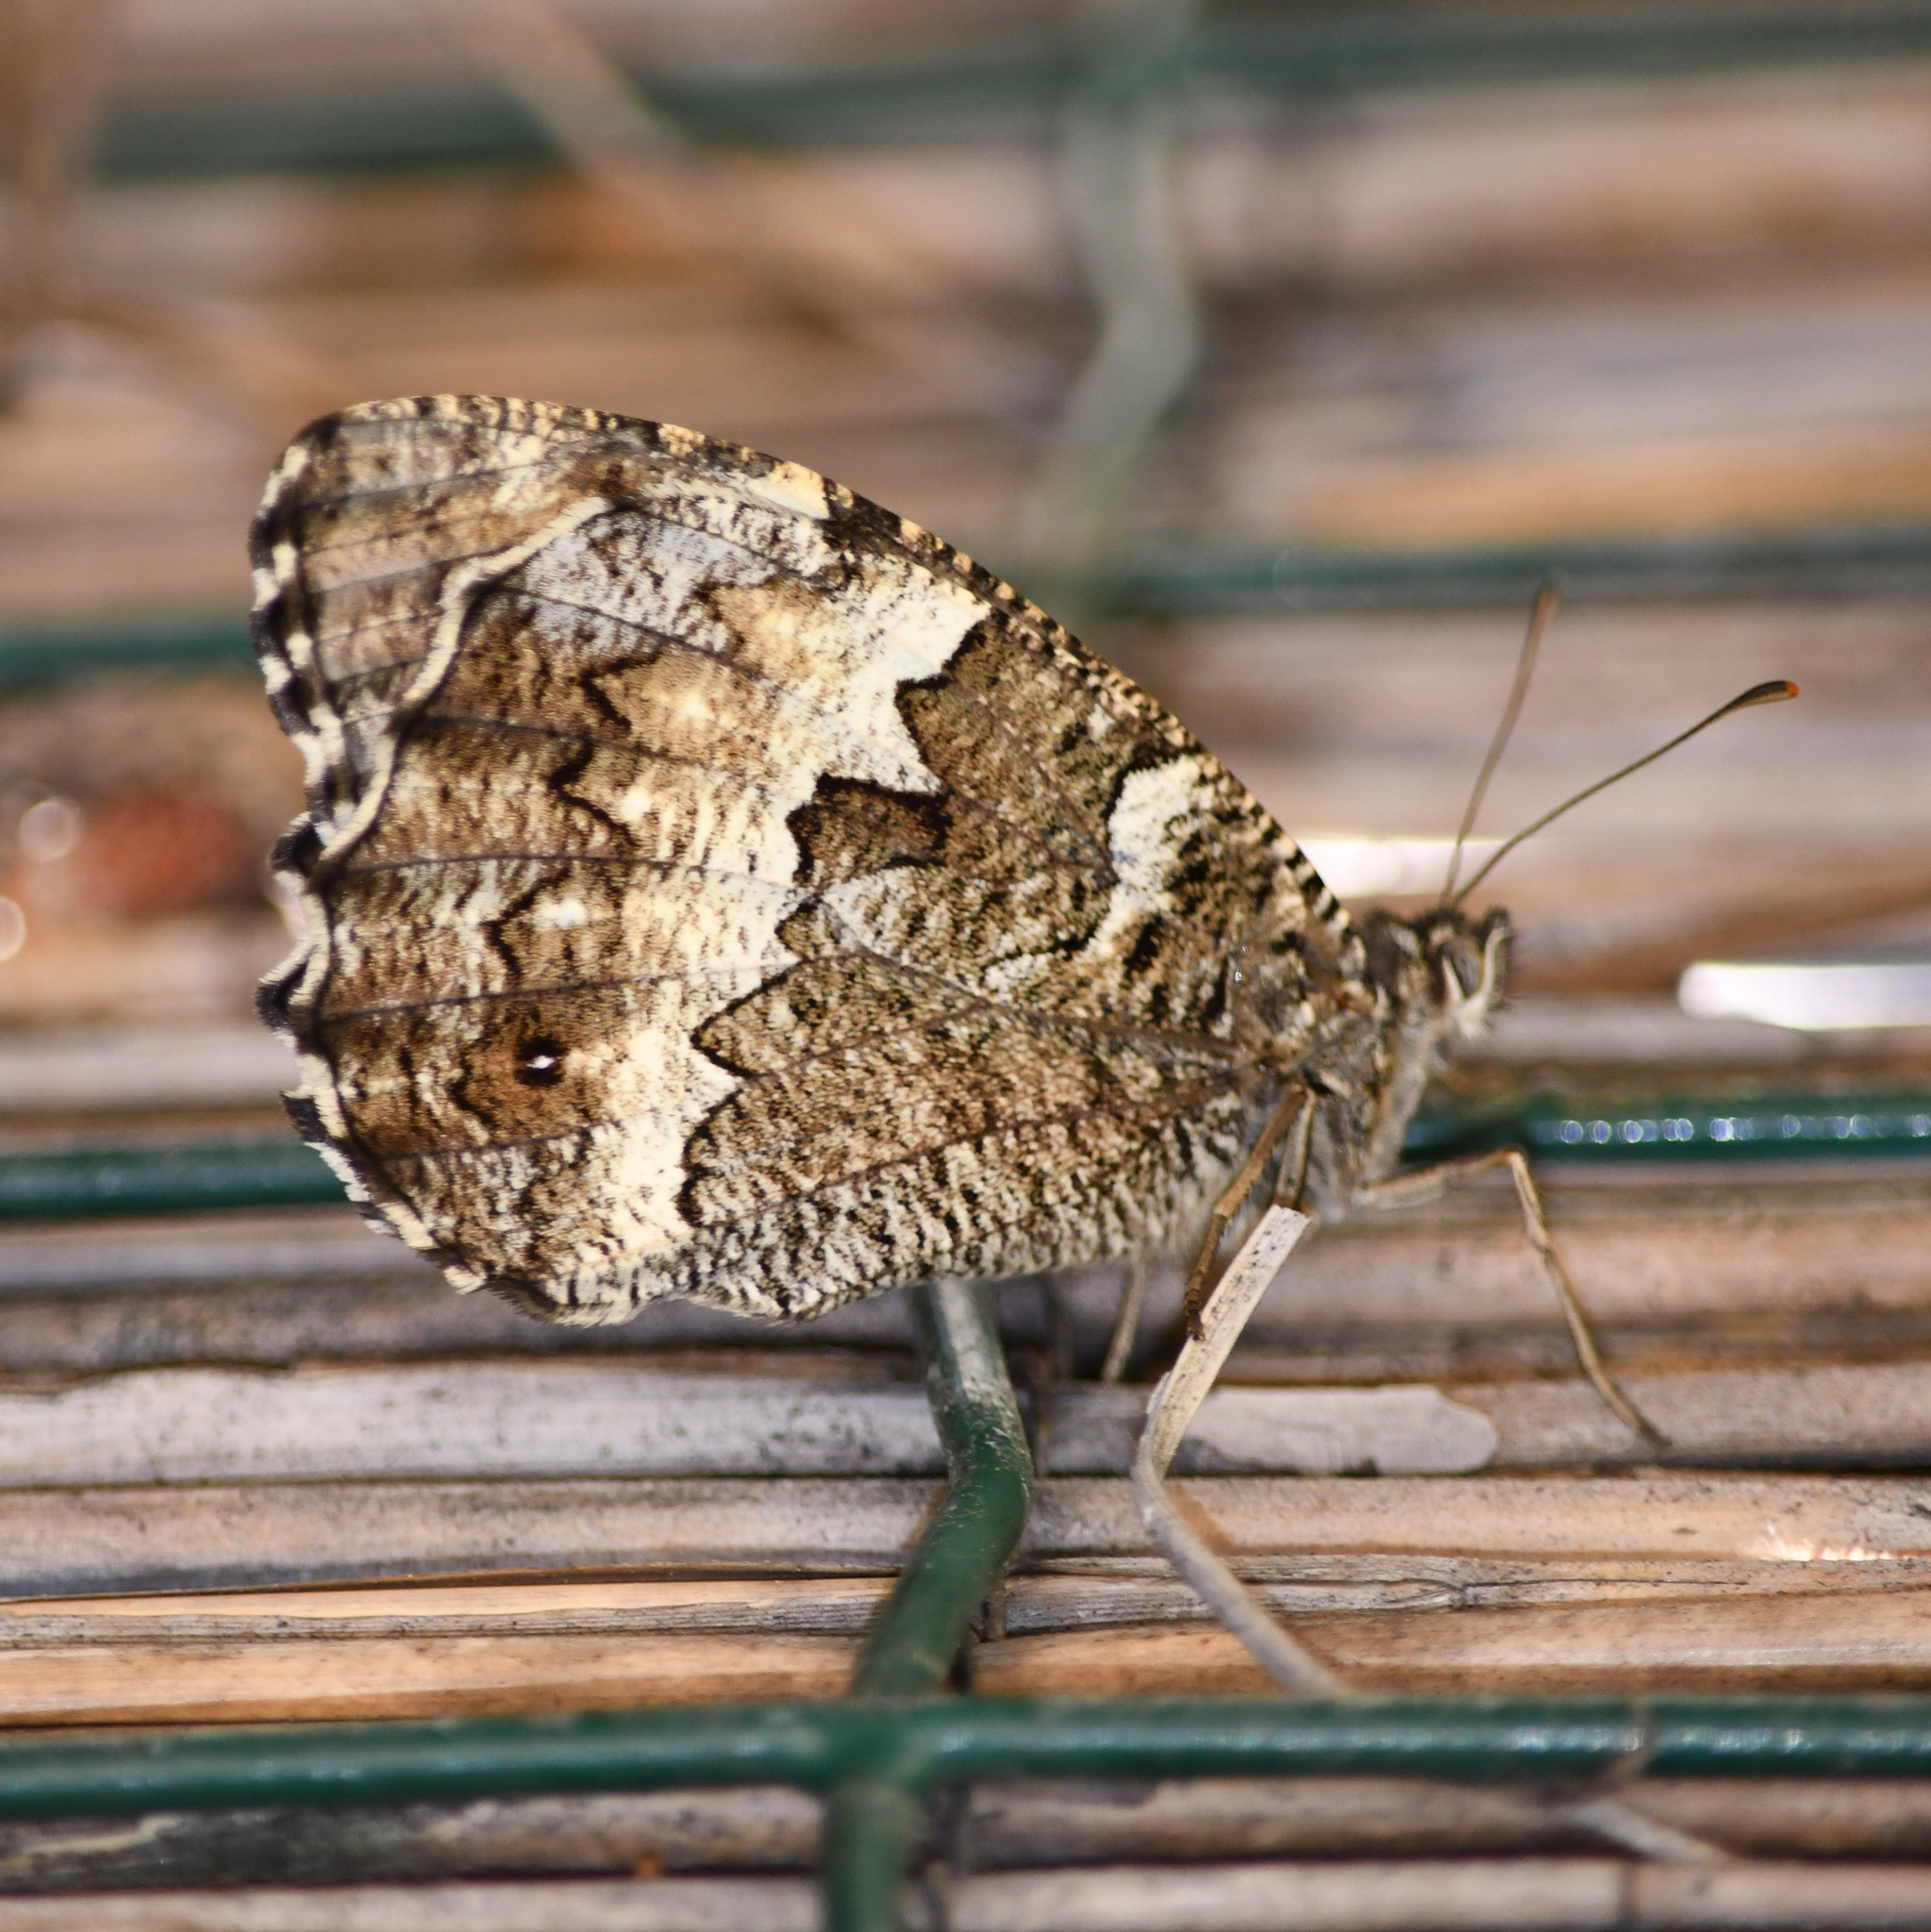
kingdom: Animalia
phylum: Arthropoda
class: Insecta
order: Lepidoptera
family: Lycaenidae
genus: Loweia
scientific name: Loweia tityrus
